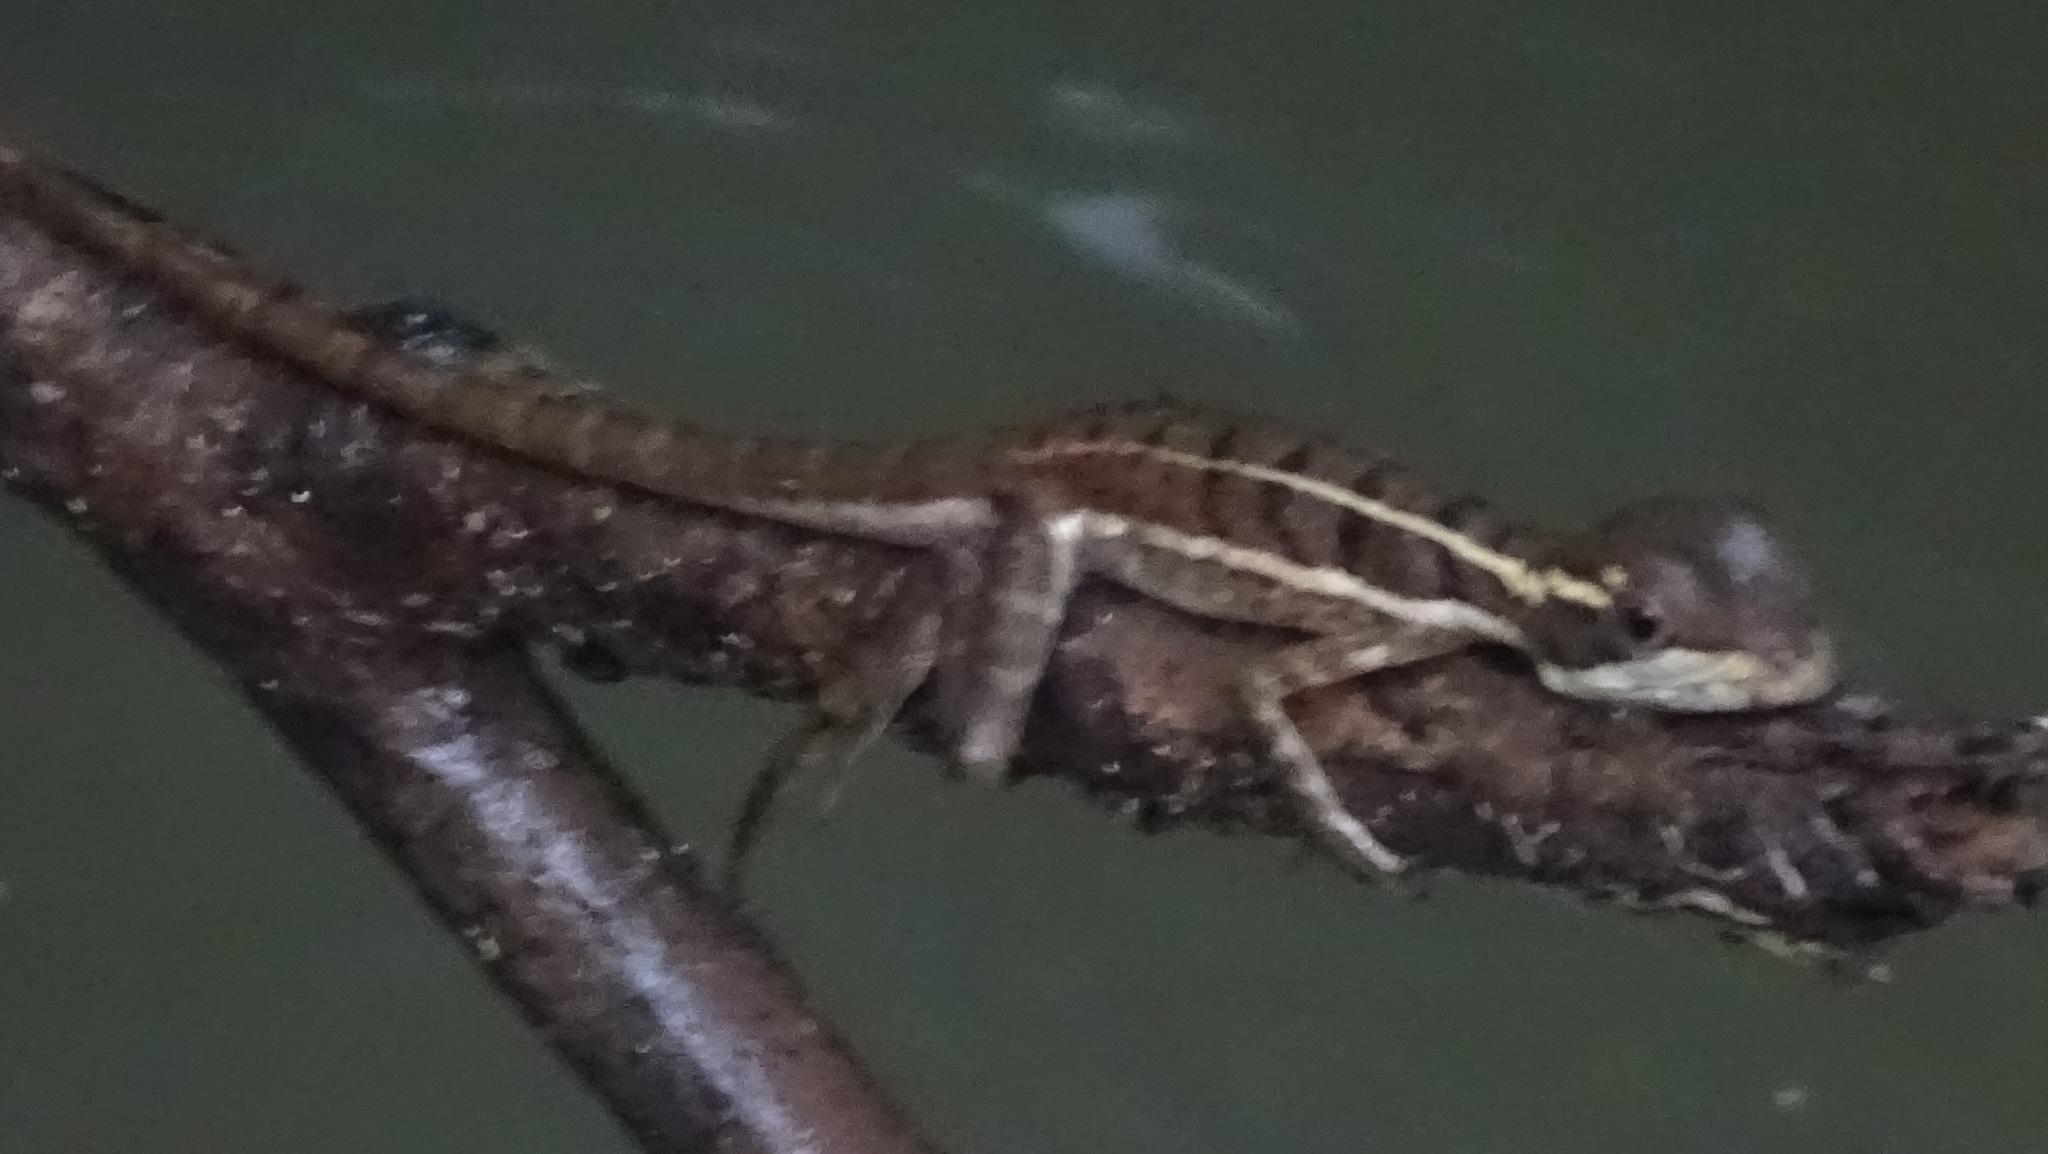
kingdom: Animalia
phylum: Chordata
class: Squamata
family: Corytophanidae
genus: Basiliscus
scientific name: Basiliscus basiliscus
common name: Common basilisk
